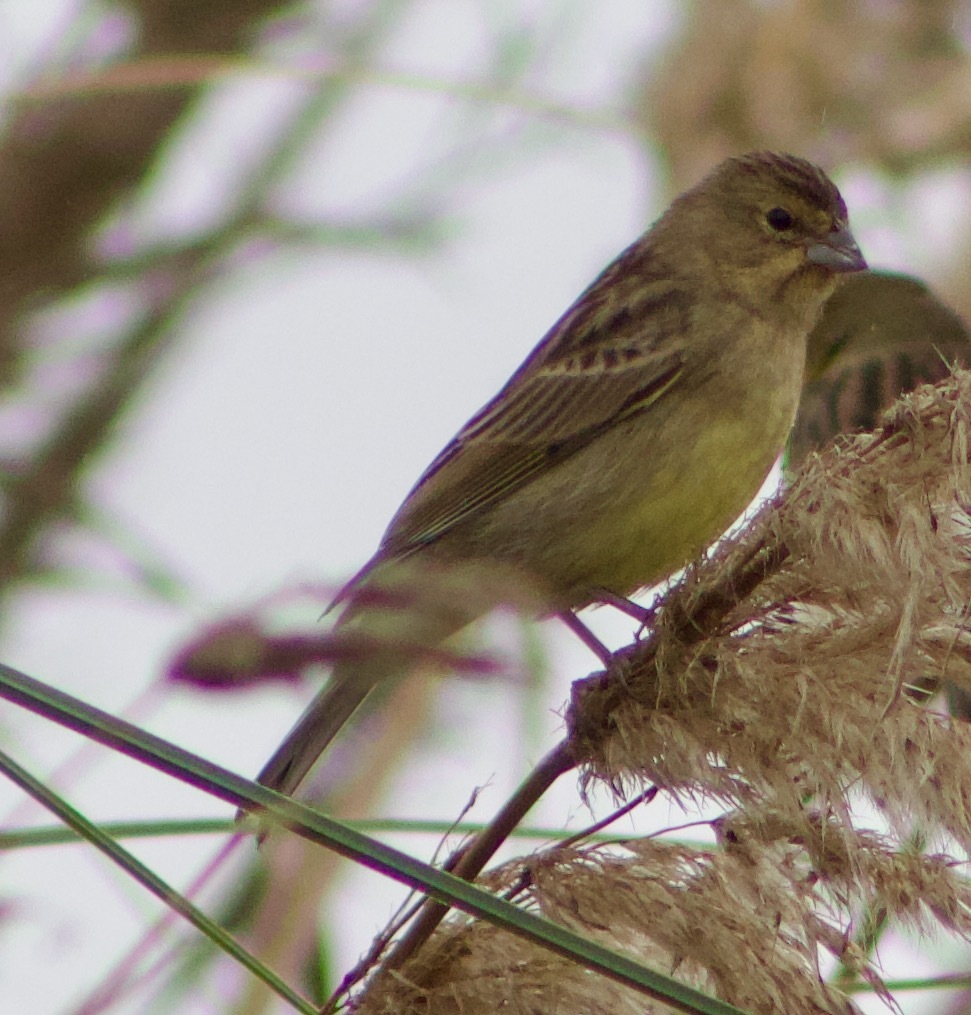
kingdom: Animalia
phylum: Chordata
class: Aves
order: Passeriformes
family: Thraupidae
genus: Sicalis
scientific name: Sicalis luteola
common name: Grassland yellow-finch
